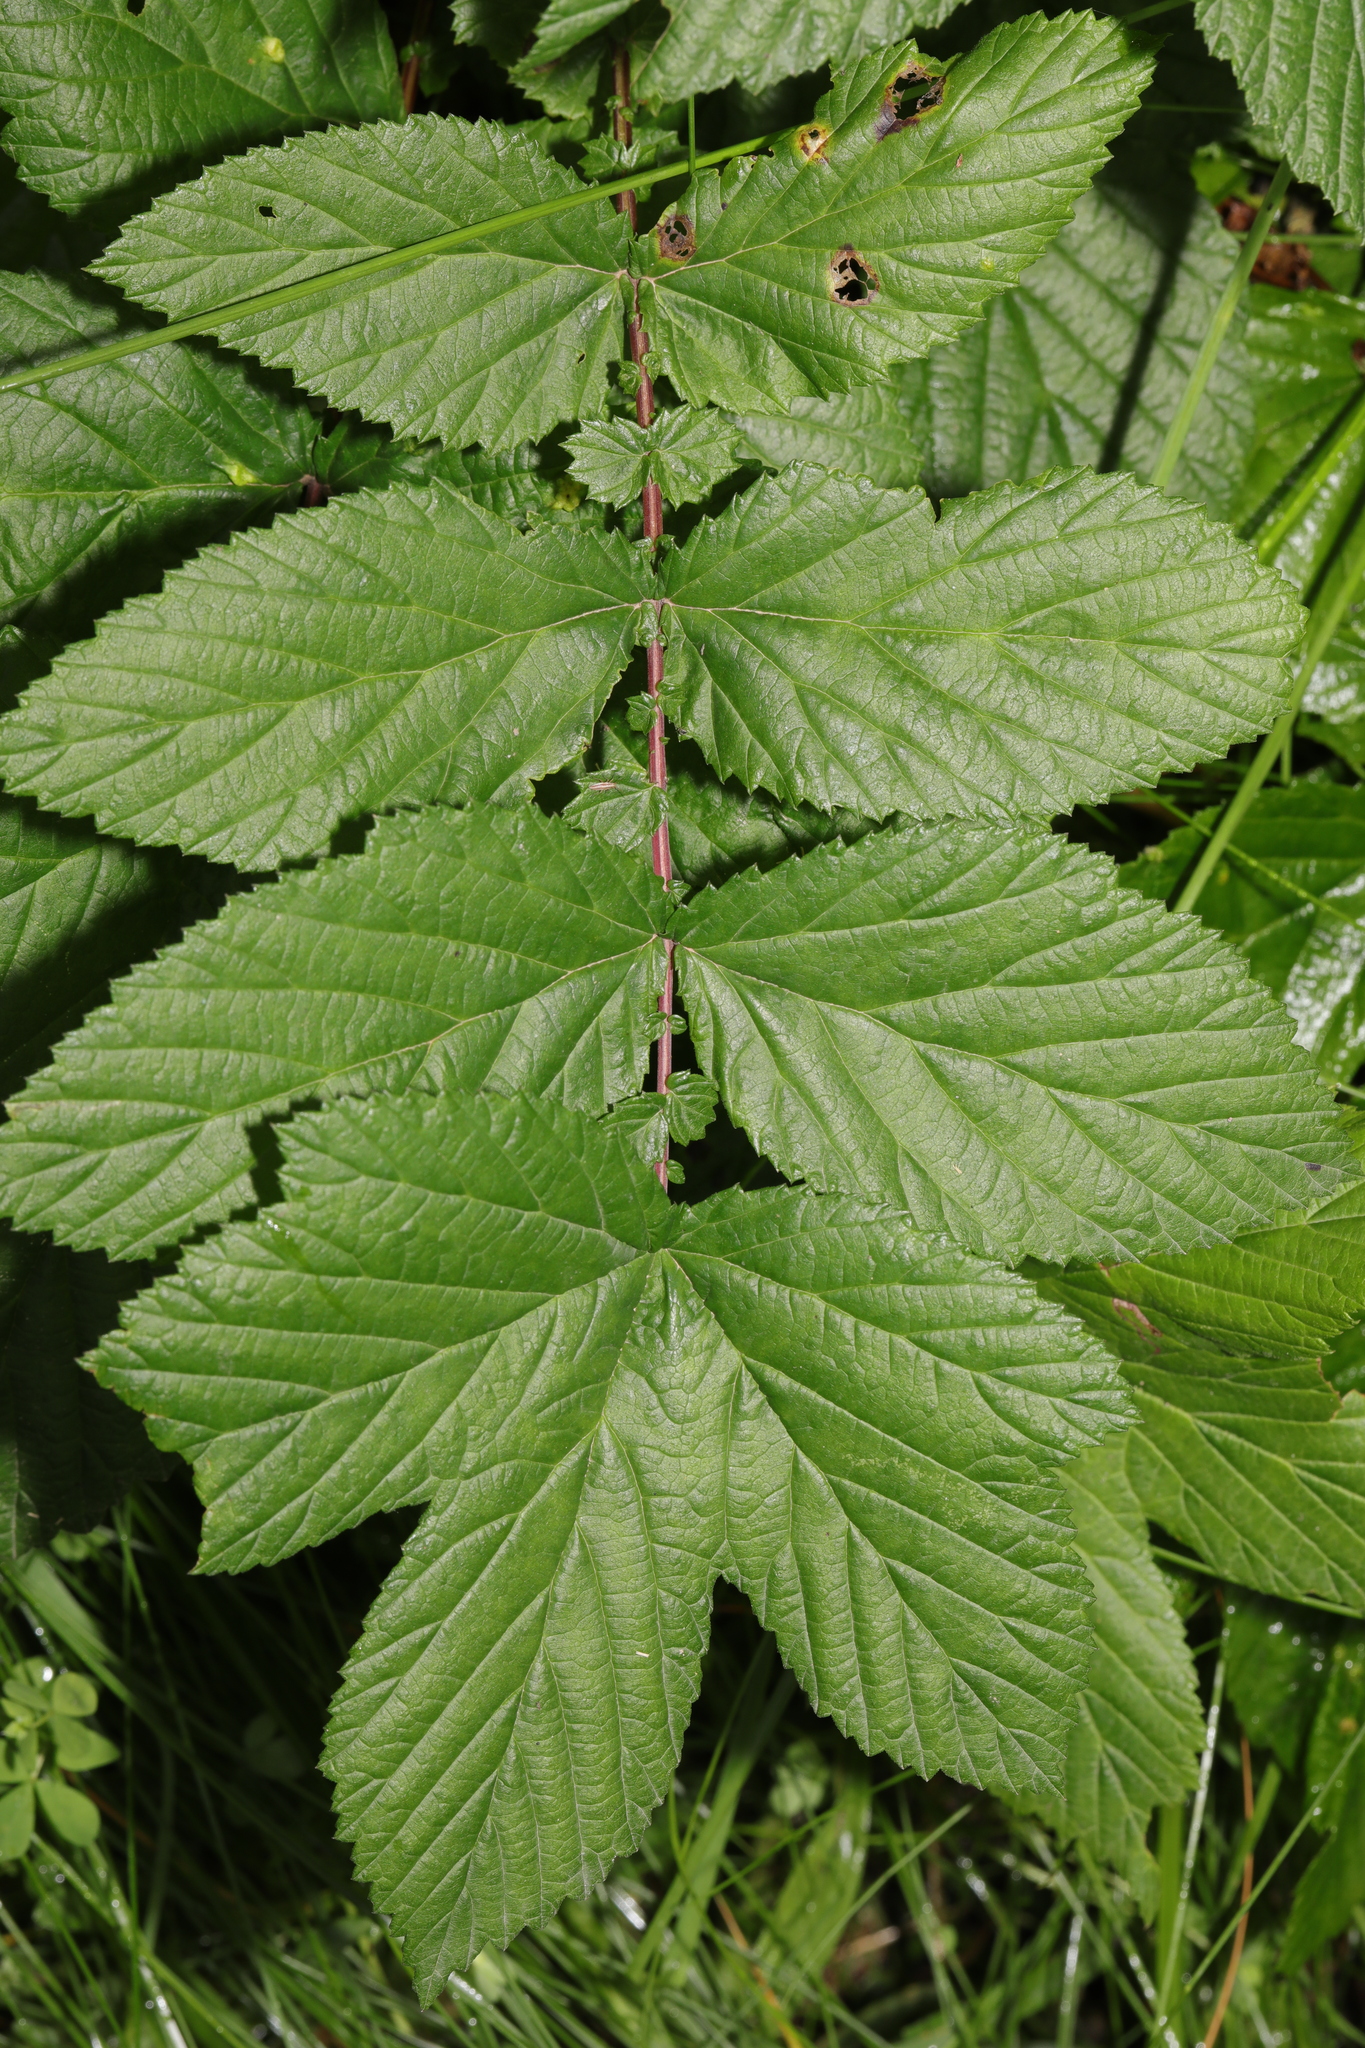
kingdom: Plantae
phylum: Tracheophyta
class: Magnoliopsida
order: Rosales
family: Rosaceae
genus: Filipendula
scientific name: Filipendula ulmaria
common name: Meadowsweet
